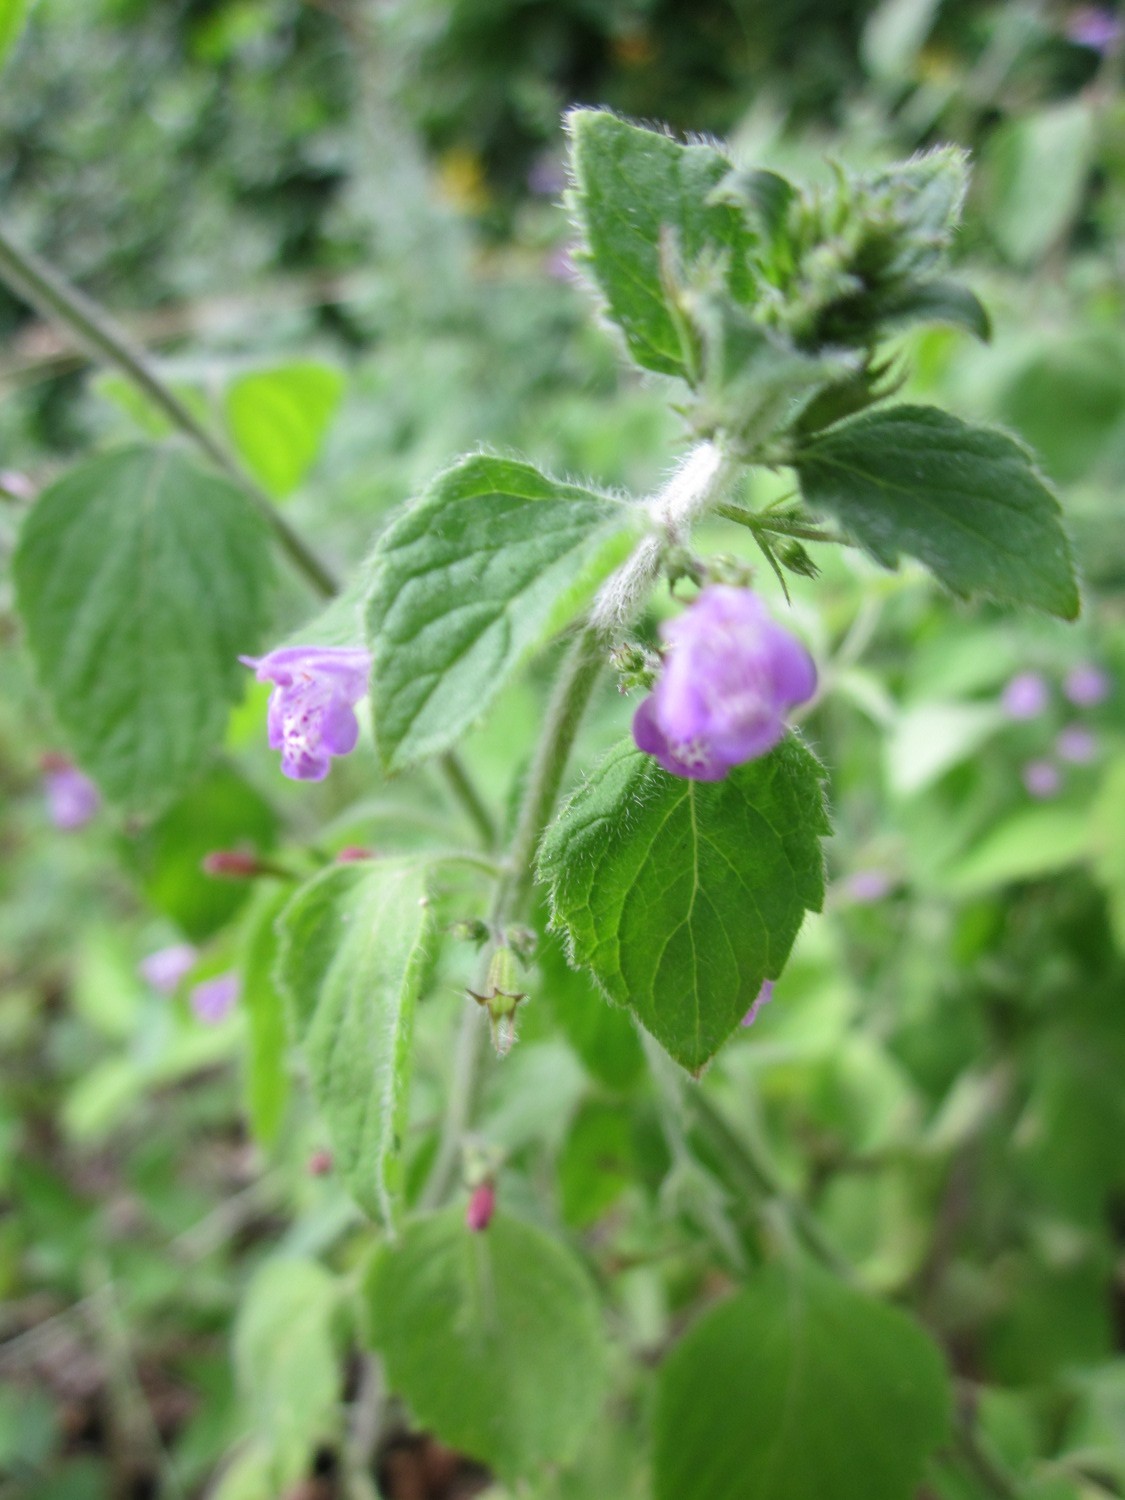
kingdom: Plantae
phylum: Tracheophyta
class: Magnoliopsida
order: Lamiales
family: Lamiaceae
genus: Clinopodium
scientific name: Clinopodium menthifolium
